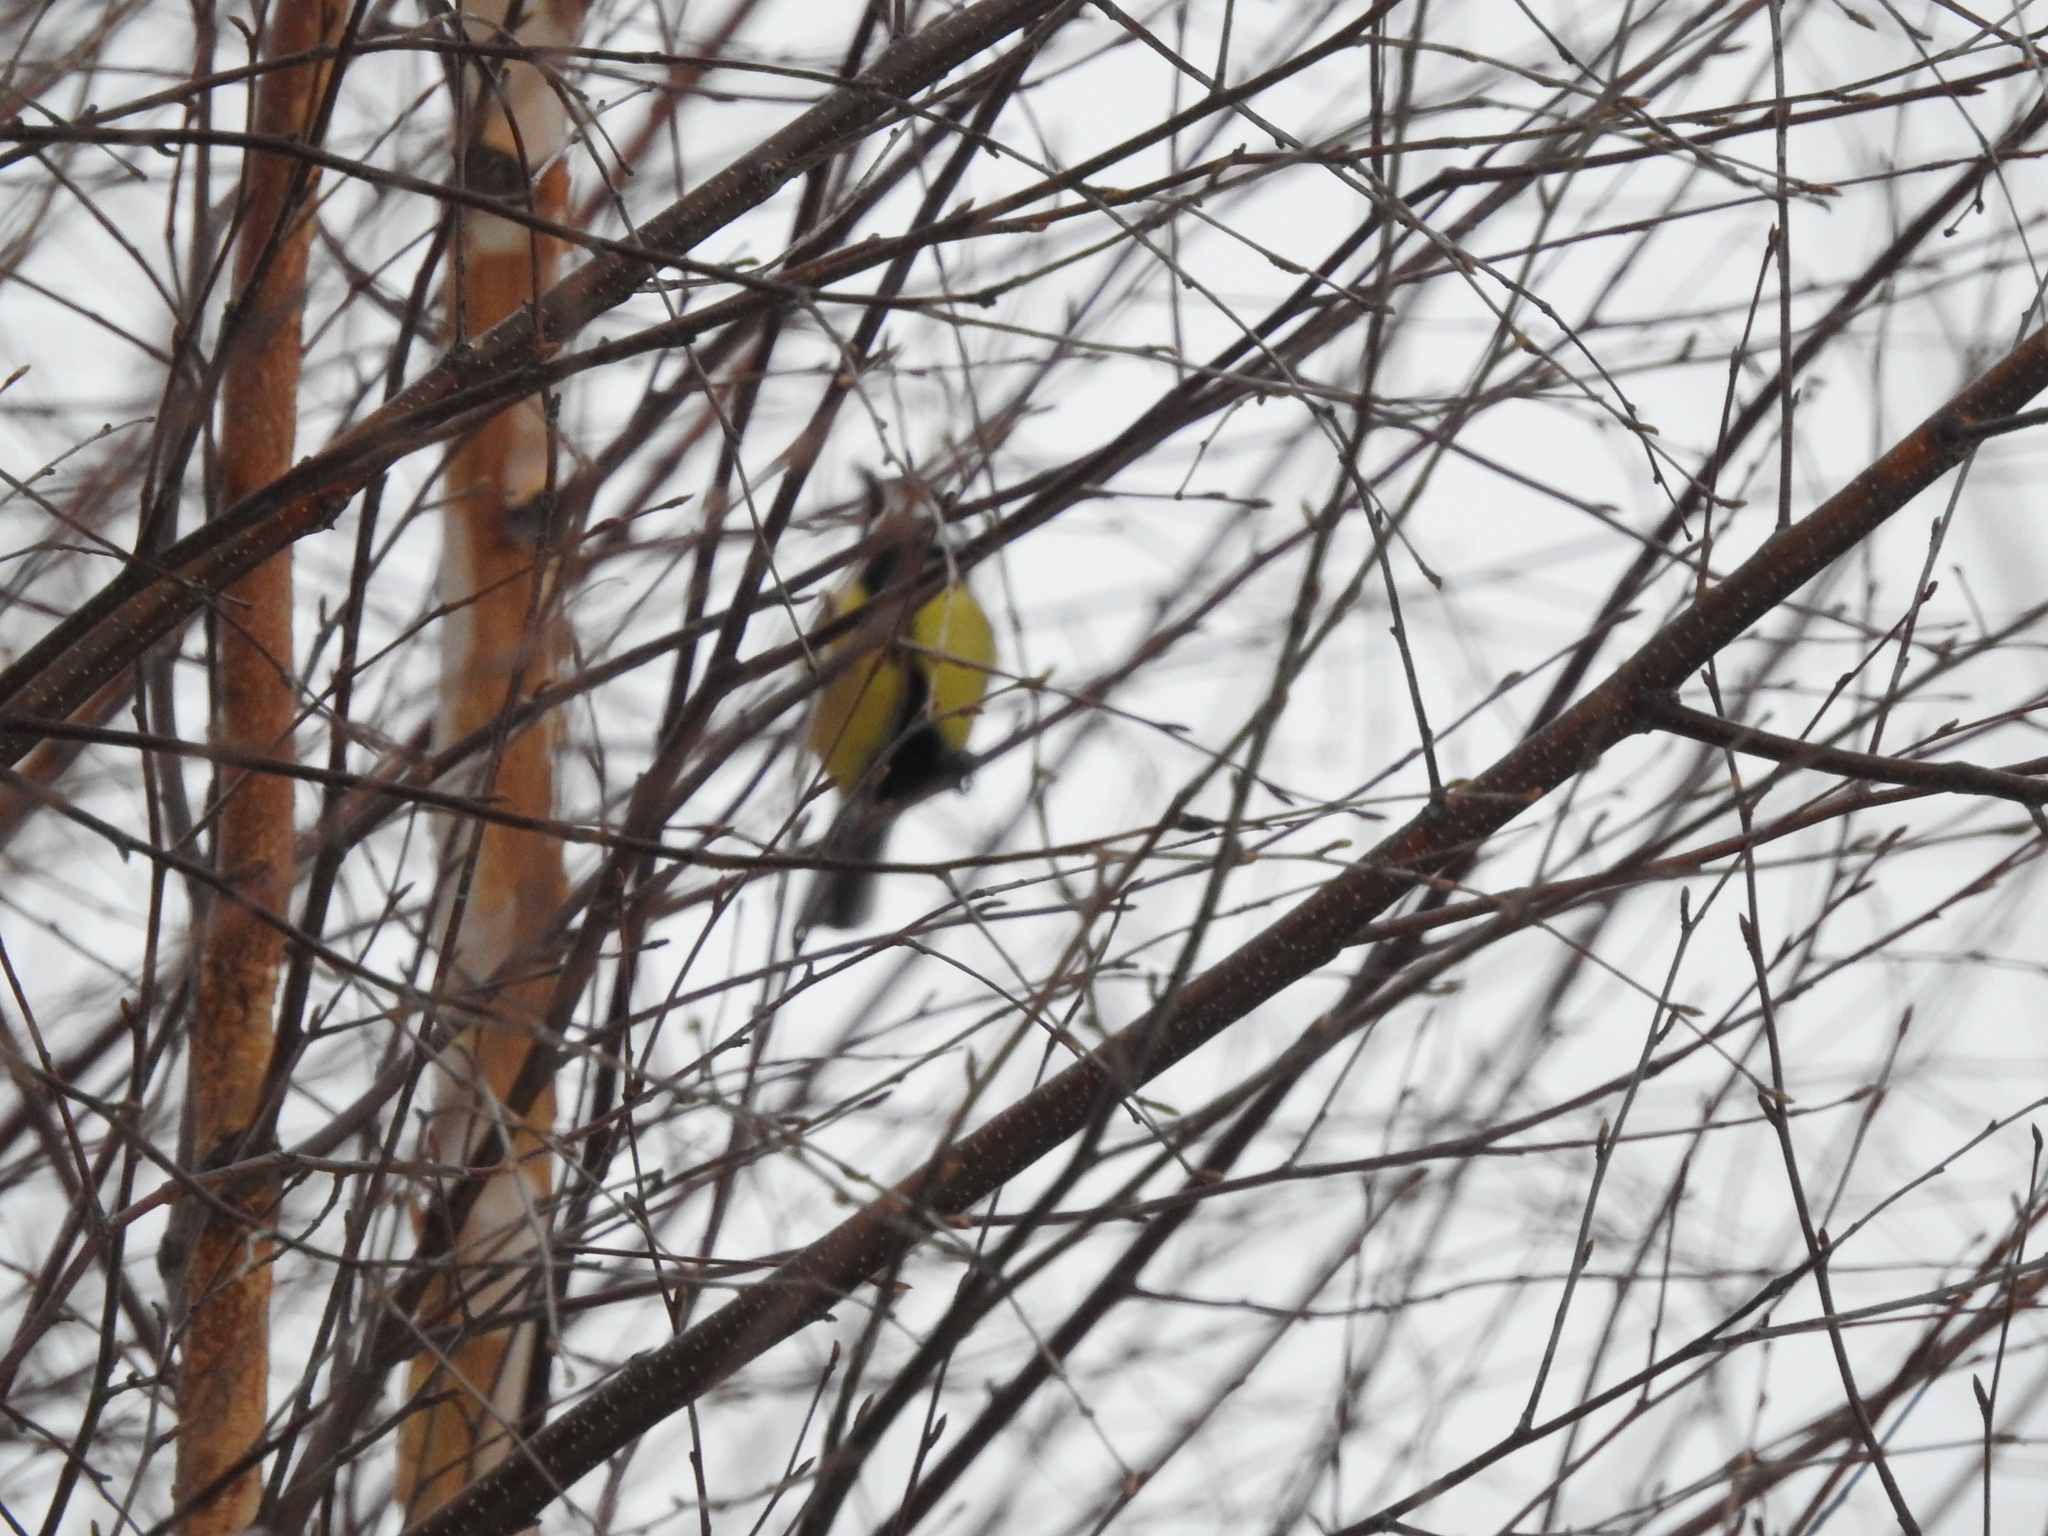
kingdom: Animalia
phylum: Chordata
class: Aves
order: Passeriformes
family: Paridae
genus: Parus
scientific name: Parus major
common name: Great tit
